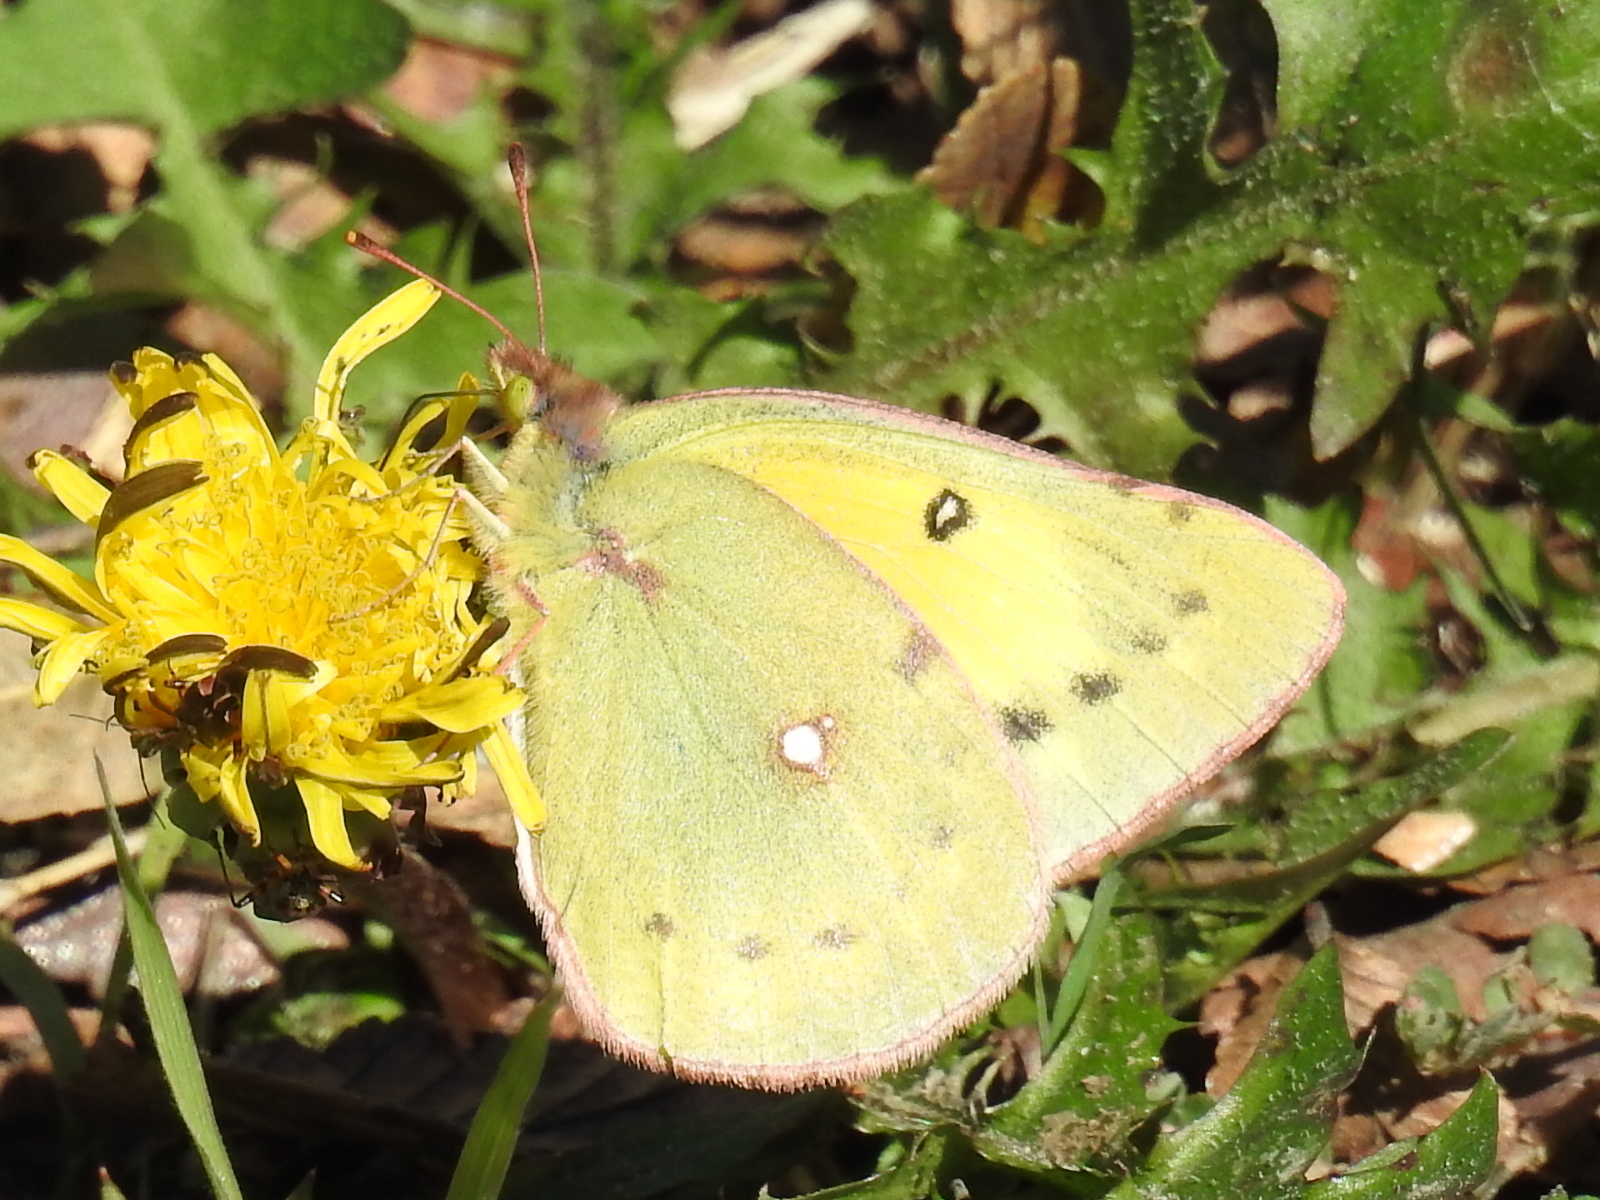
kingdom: Animalia
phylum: Arthropoda
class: Insecta
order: Lepidoptera
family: Pieridae
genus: Colias
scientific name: Colias eurytheme
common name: Alfalfa butterfly
